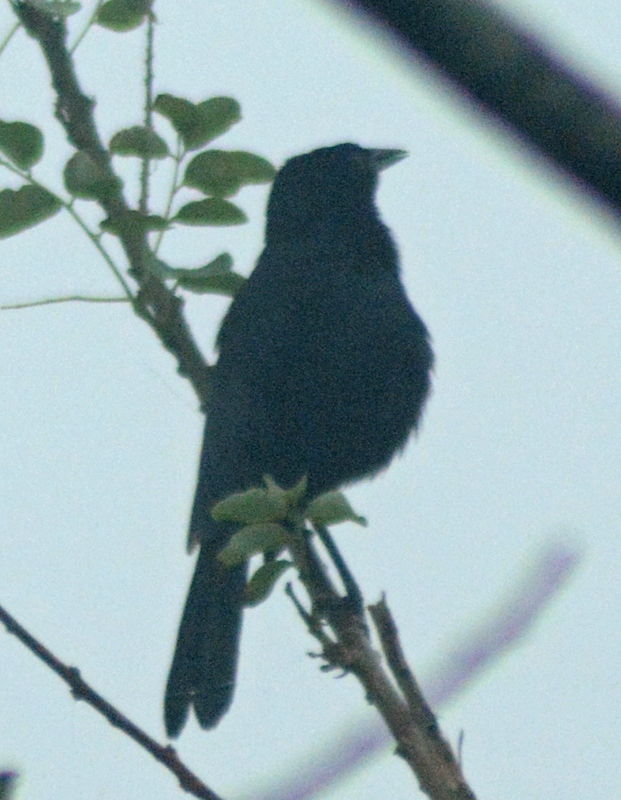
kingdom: Animalia
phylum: Chordata
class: Aves
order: Passeriformes
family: Icteridae
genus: Dives
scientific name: Dives dives
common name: Melodious blackbird
